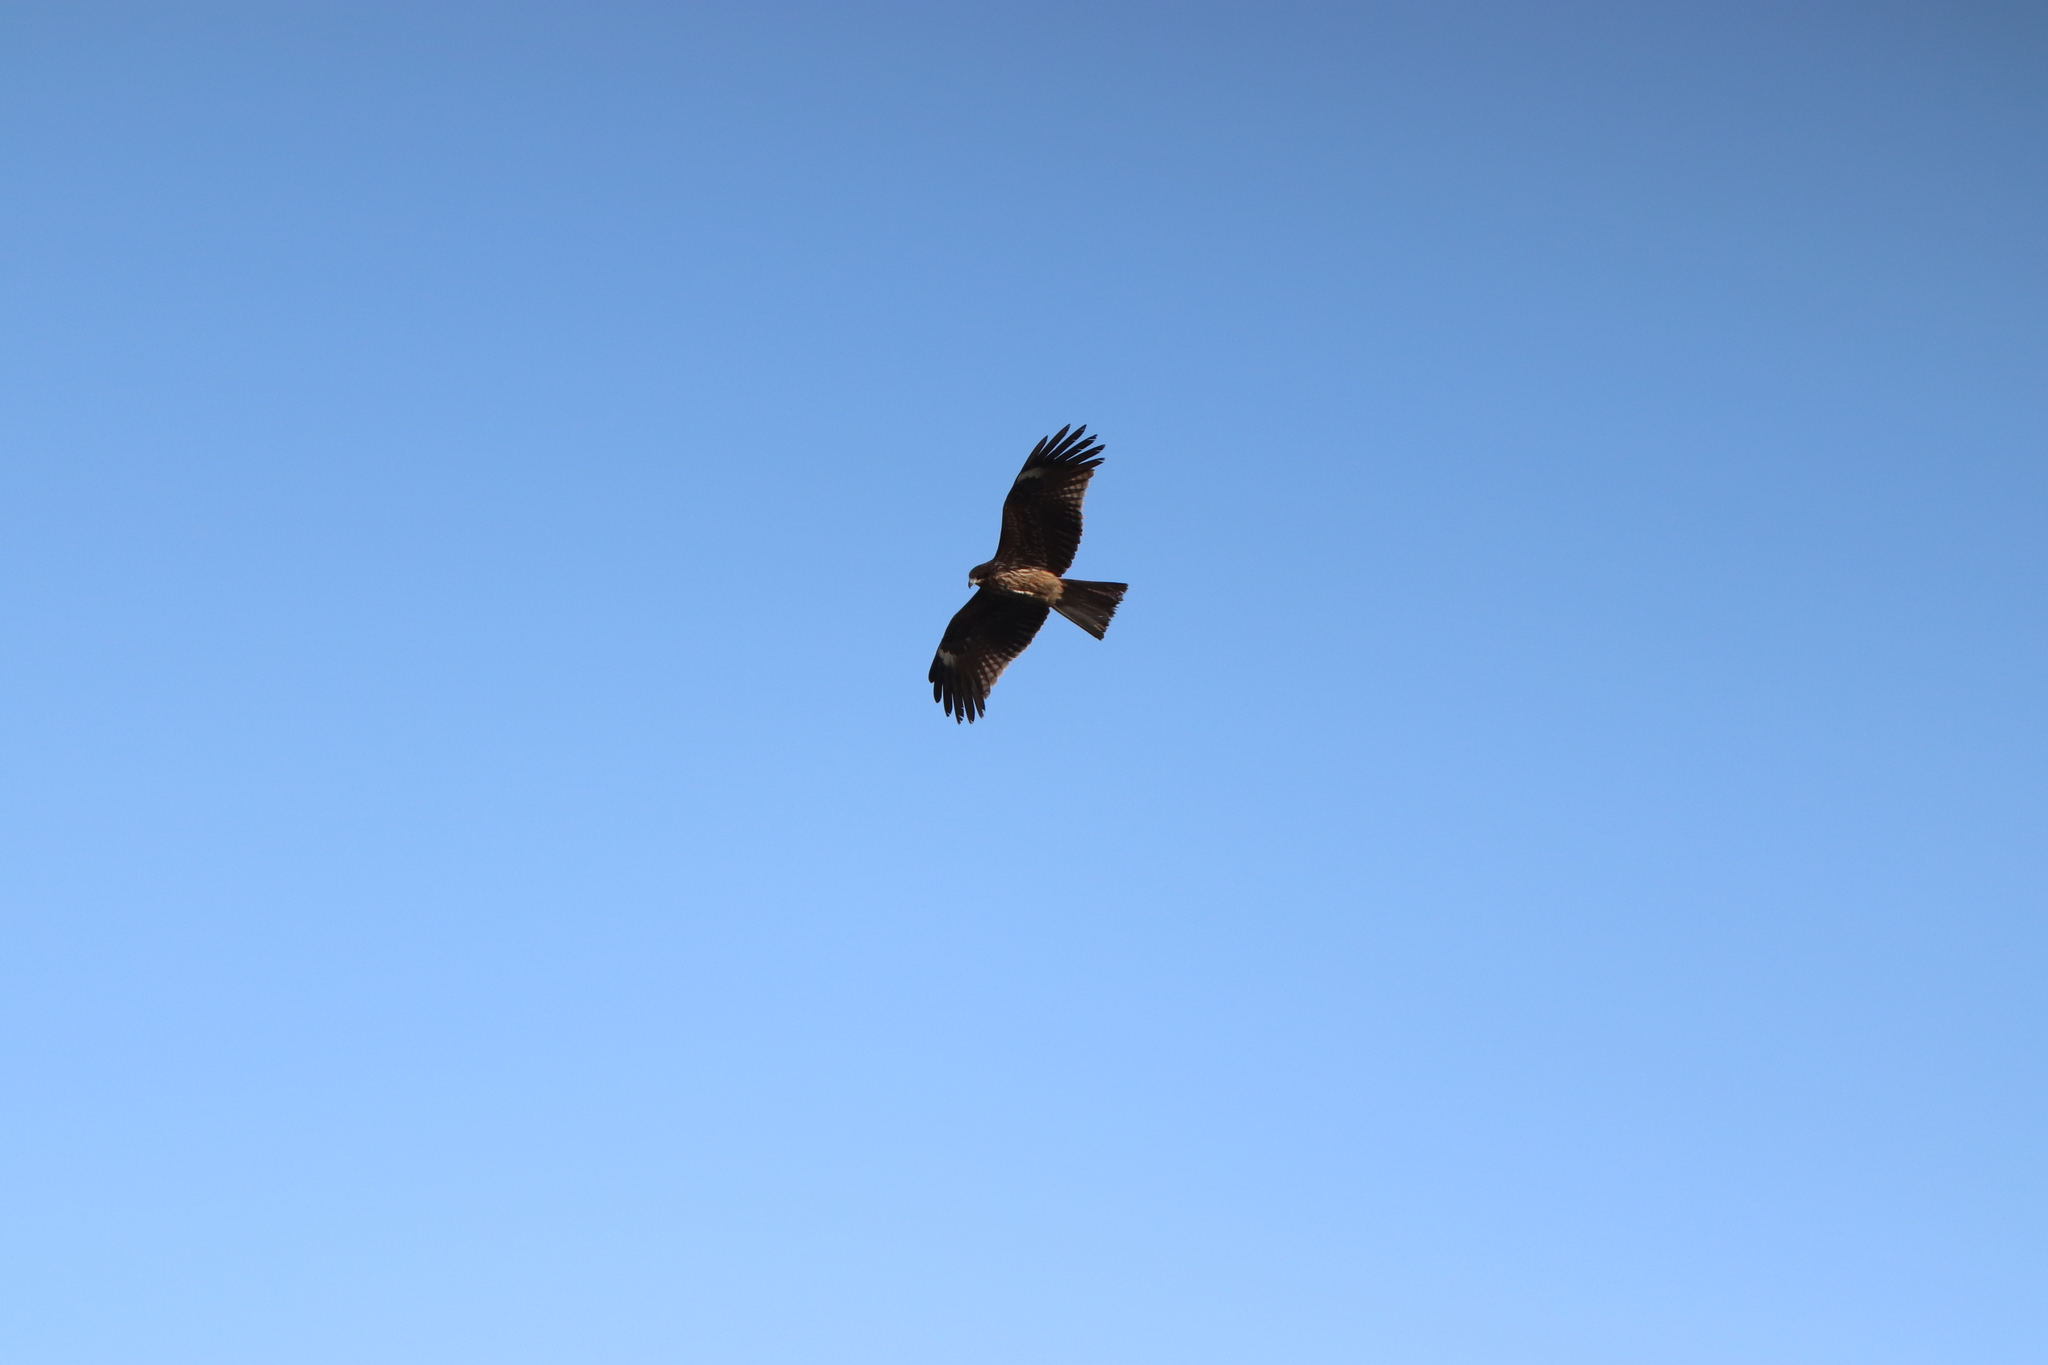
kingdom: Animalia
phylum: Chordata
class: Aves
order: Accipitriformes
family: Accipitridae
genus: Milvus
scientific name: Milvus migrans
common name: Black kite
